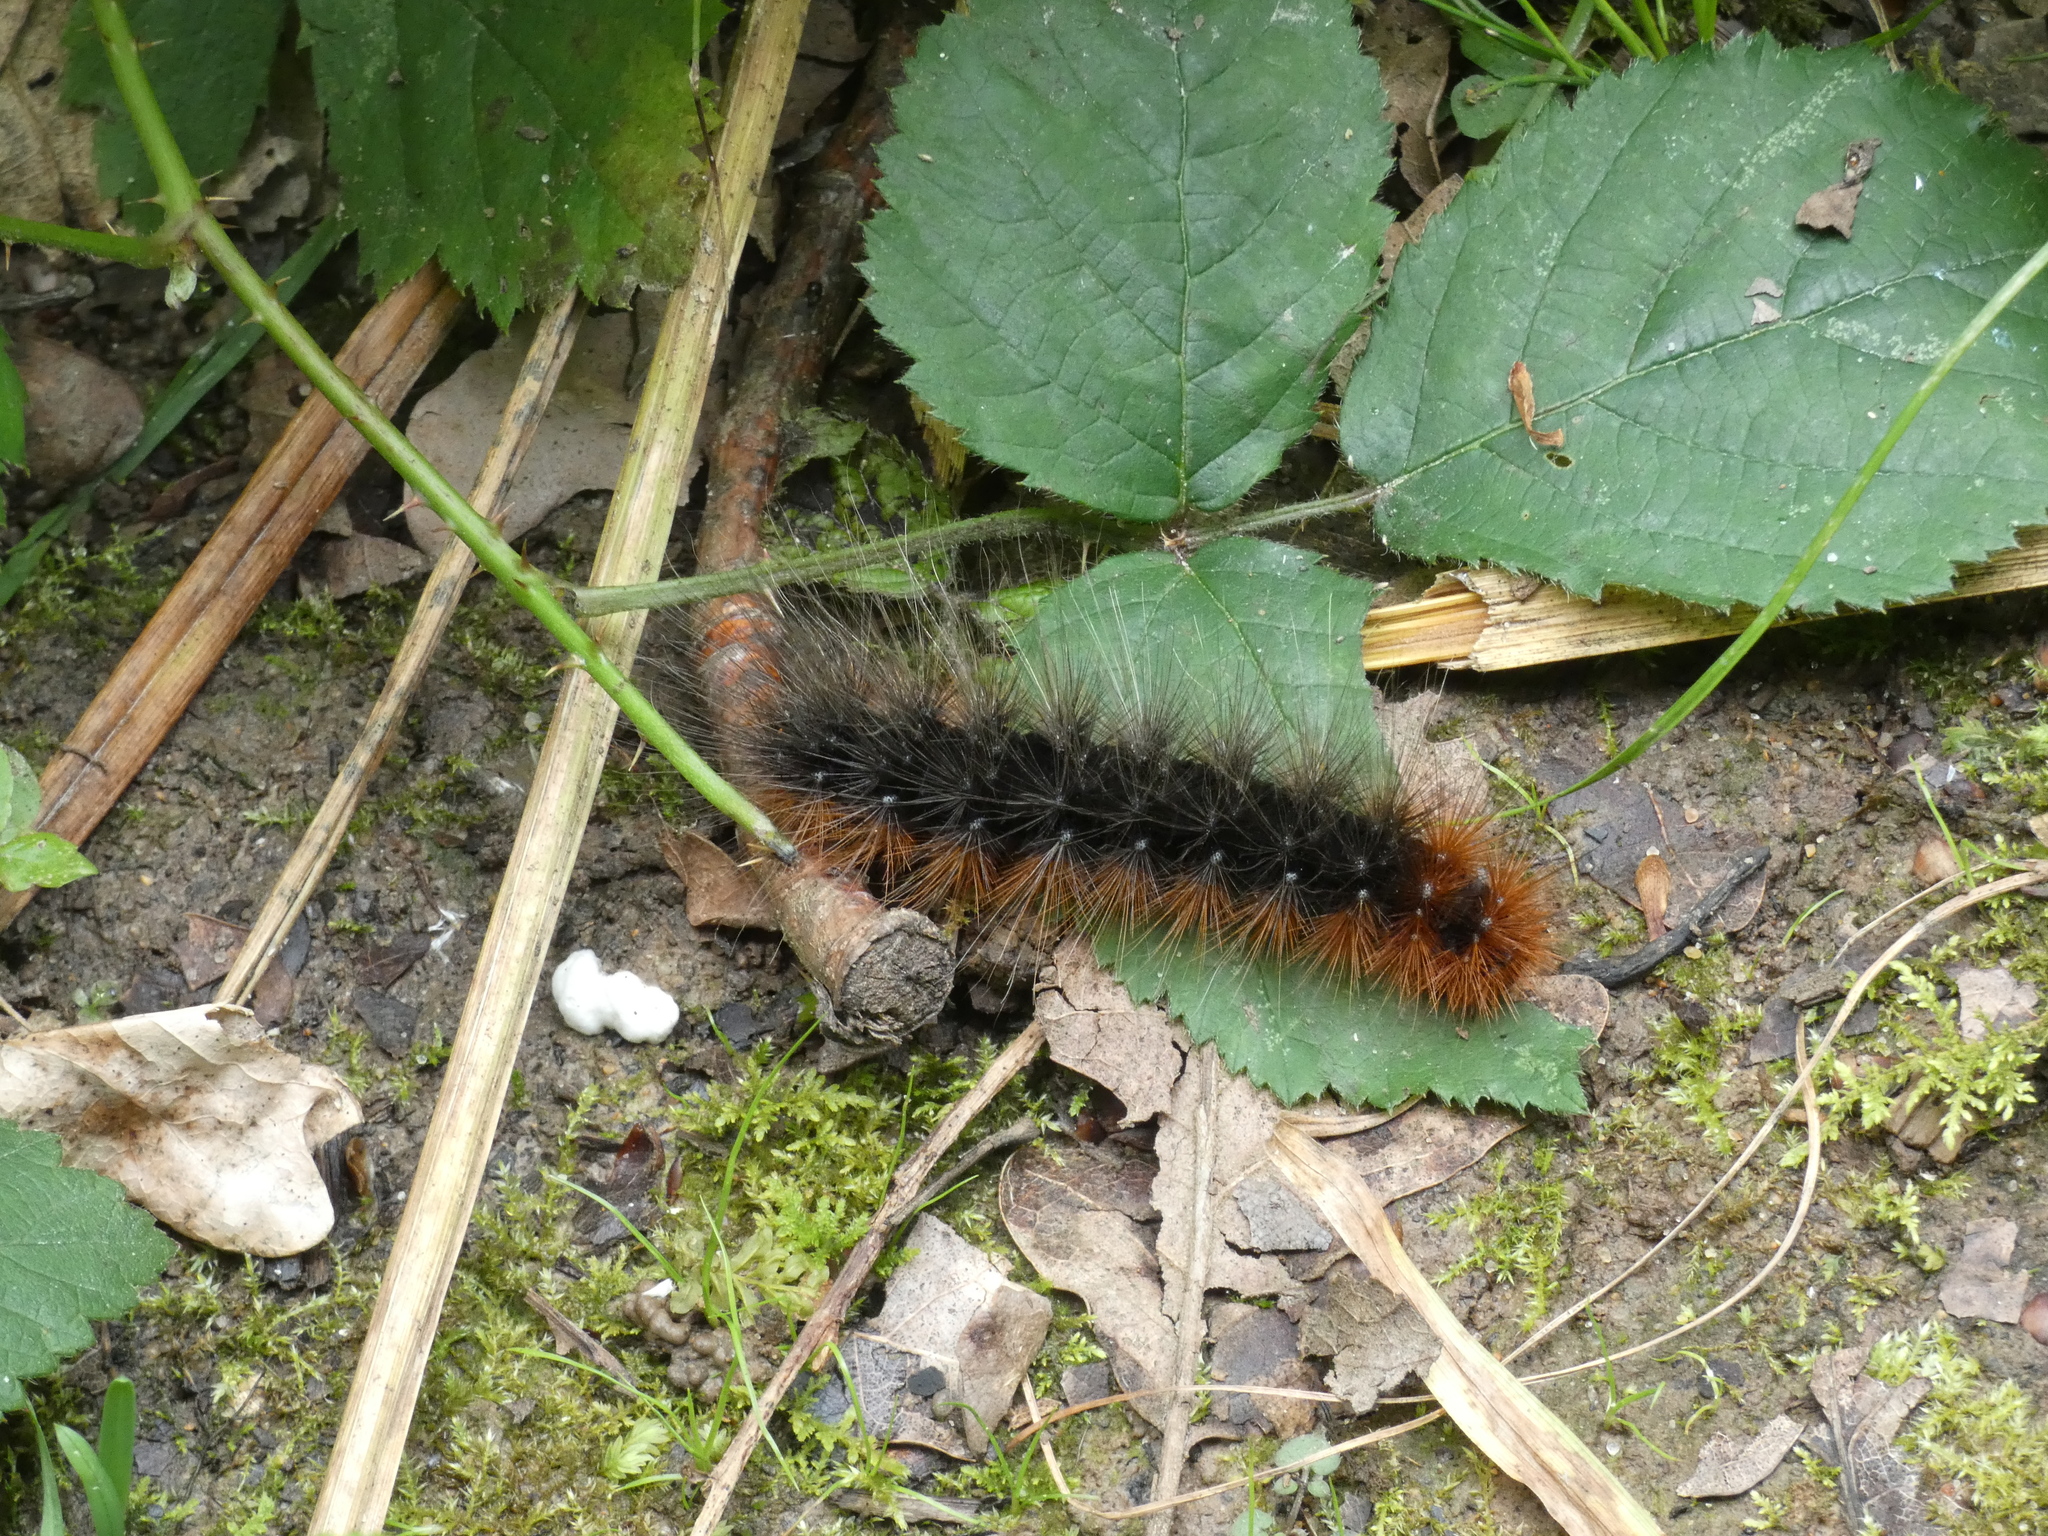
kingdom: Animalia
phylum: Arthropoda
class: Insecta
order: Lepidoptera
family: Erebidae
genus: Arctia
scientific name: Arctia caja
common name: Garden tiger
